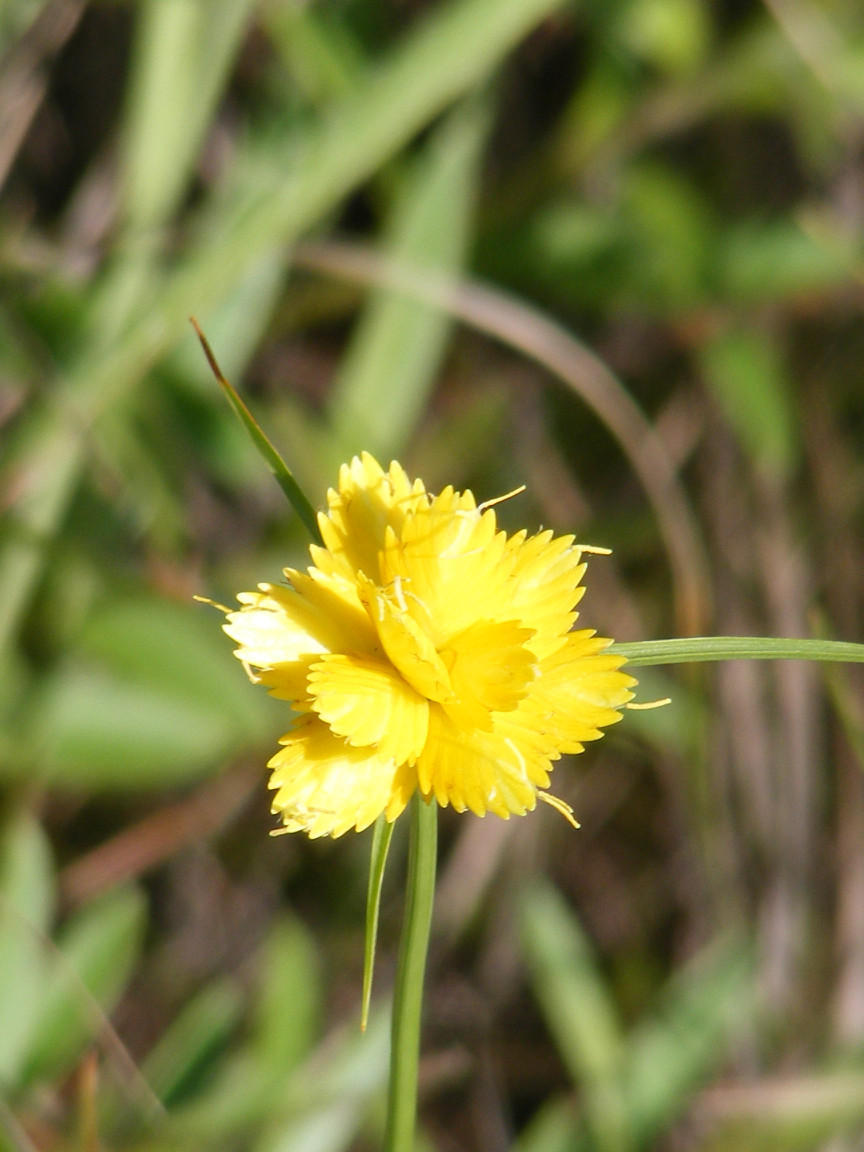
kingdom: Plantae
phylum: Tracheophyta
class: Liliopsida
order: Poales
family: Cyperaceae
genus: Cyperus
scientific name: Cyperus sphaerocephalus
